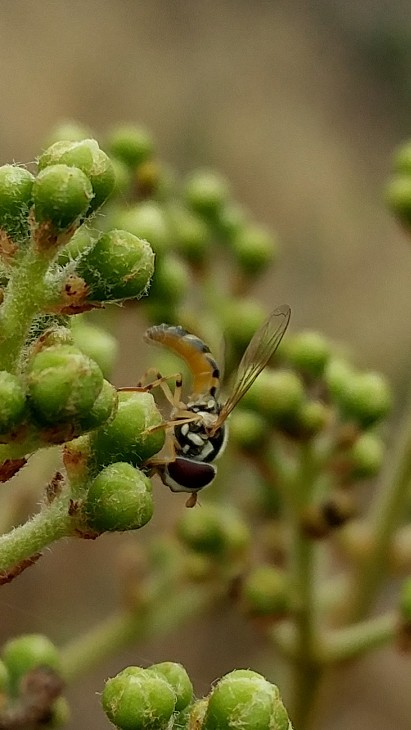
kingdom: Animalia
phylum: Arthropoda
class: Insecta
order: Diptera
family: Syrphidae
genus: Allograpta
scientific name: Allograpta exotica
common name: Syrphid fly
